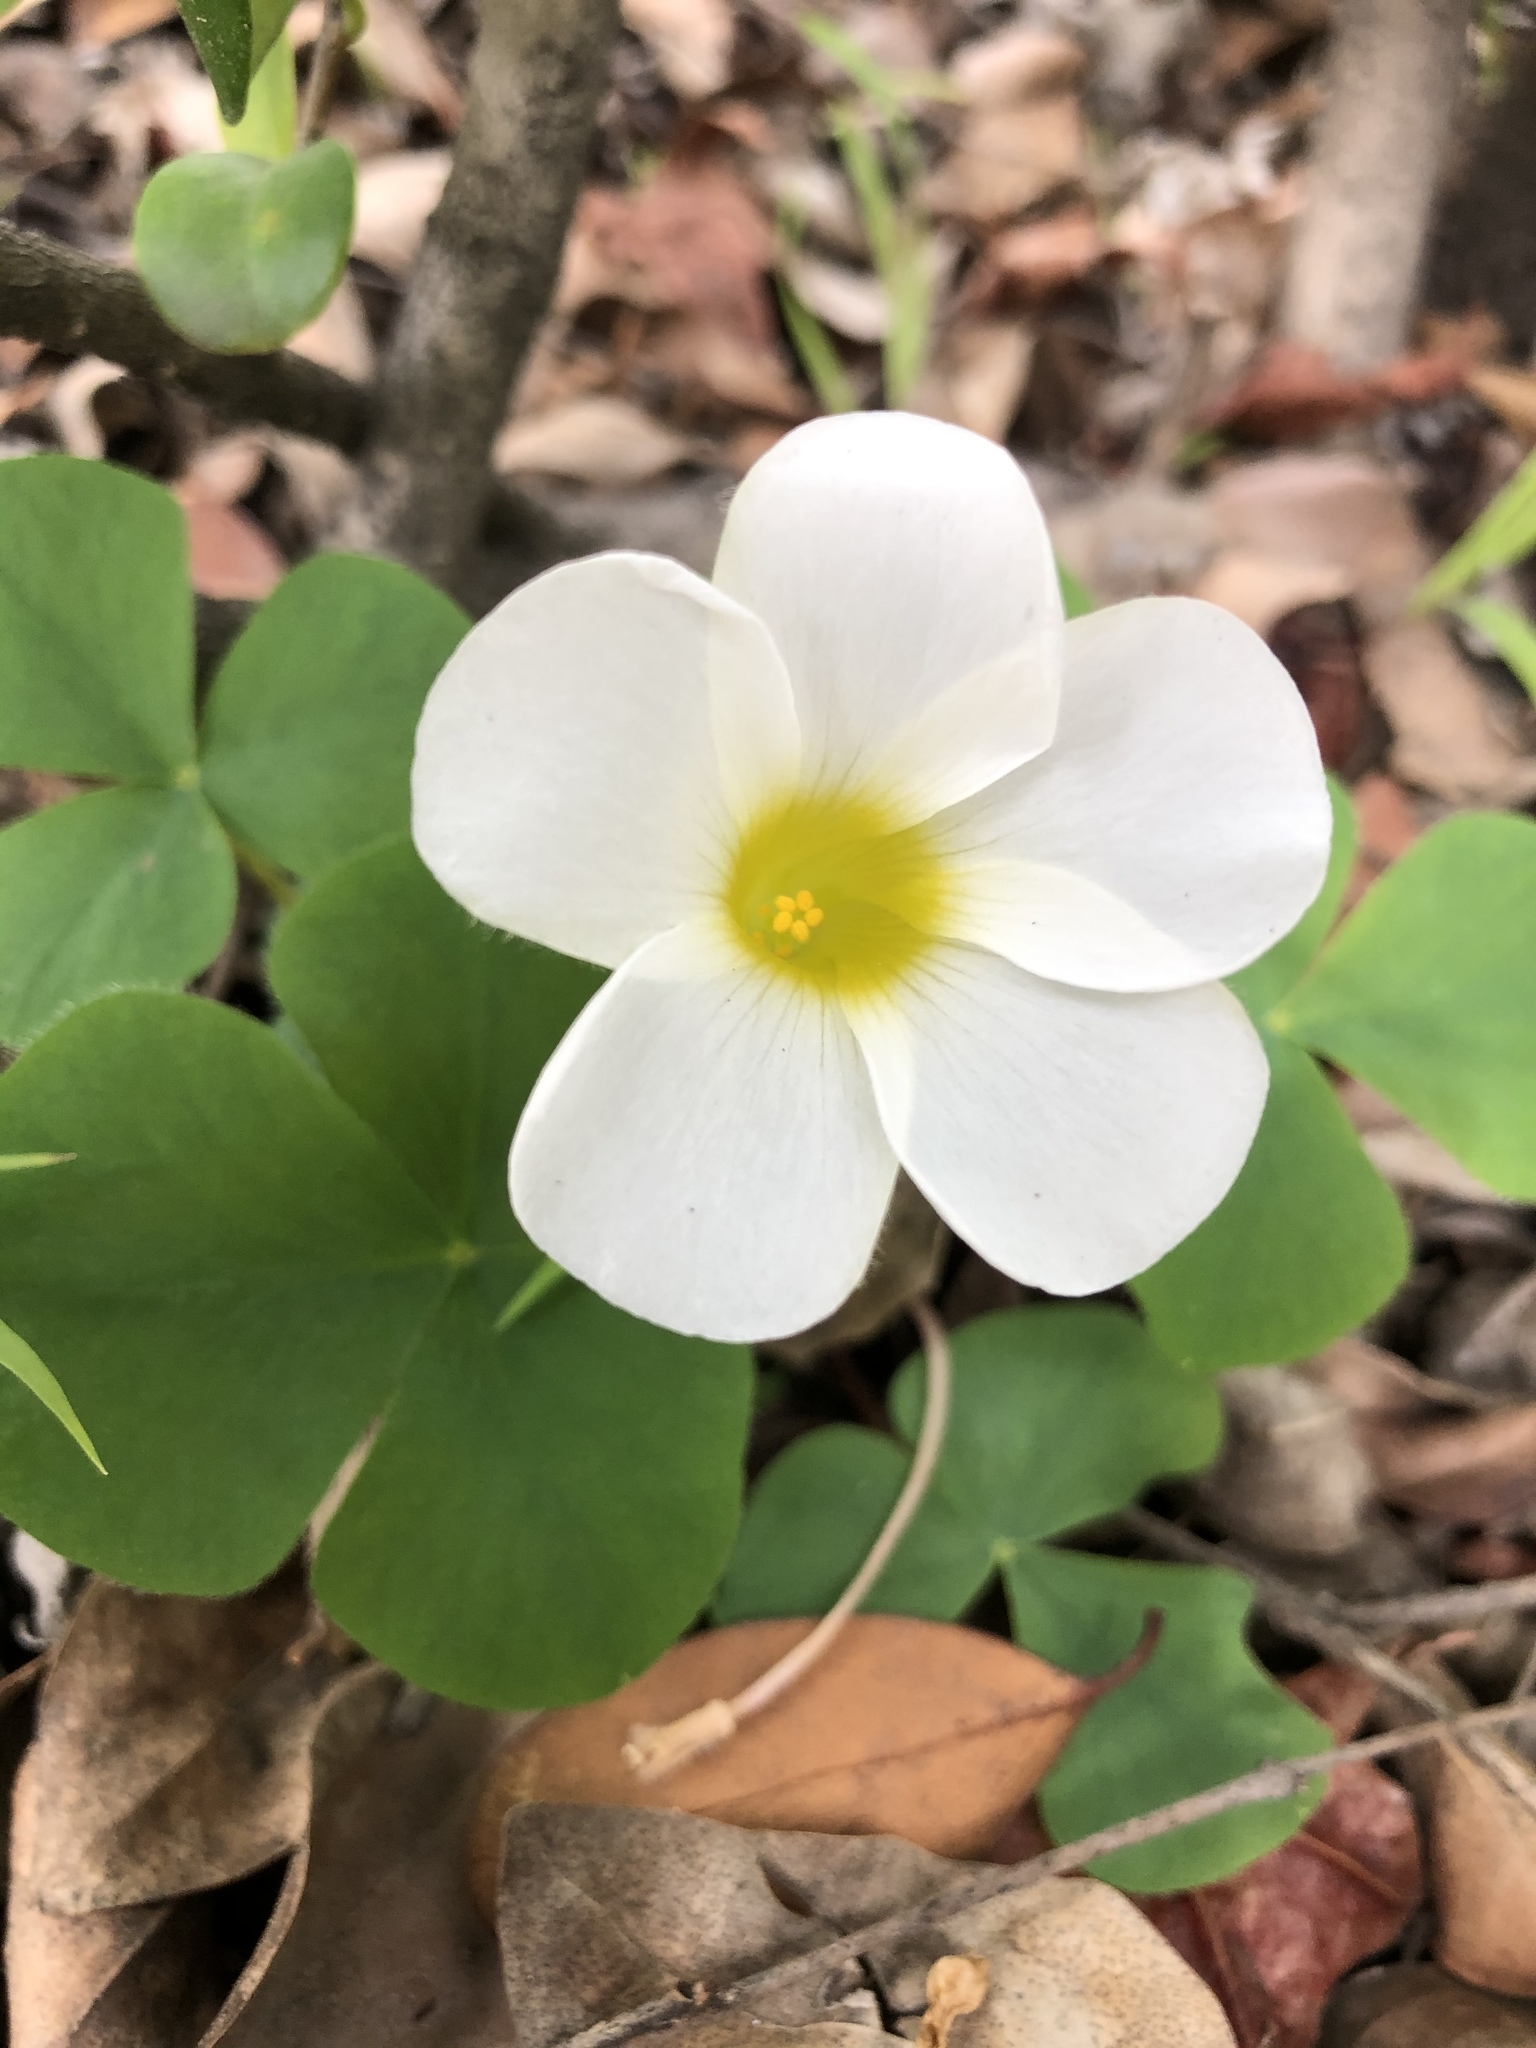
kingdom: Plantae
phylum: Tracheophyta
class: Magnoliopsida
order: Oxalidales
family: Oxalidaceae
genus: Oxalis
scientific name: Oxalis purpurea
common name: Purple woodsorrel
